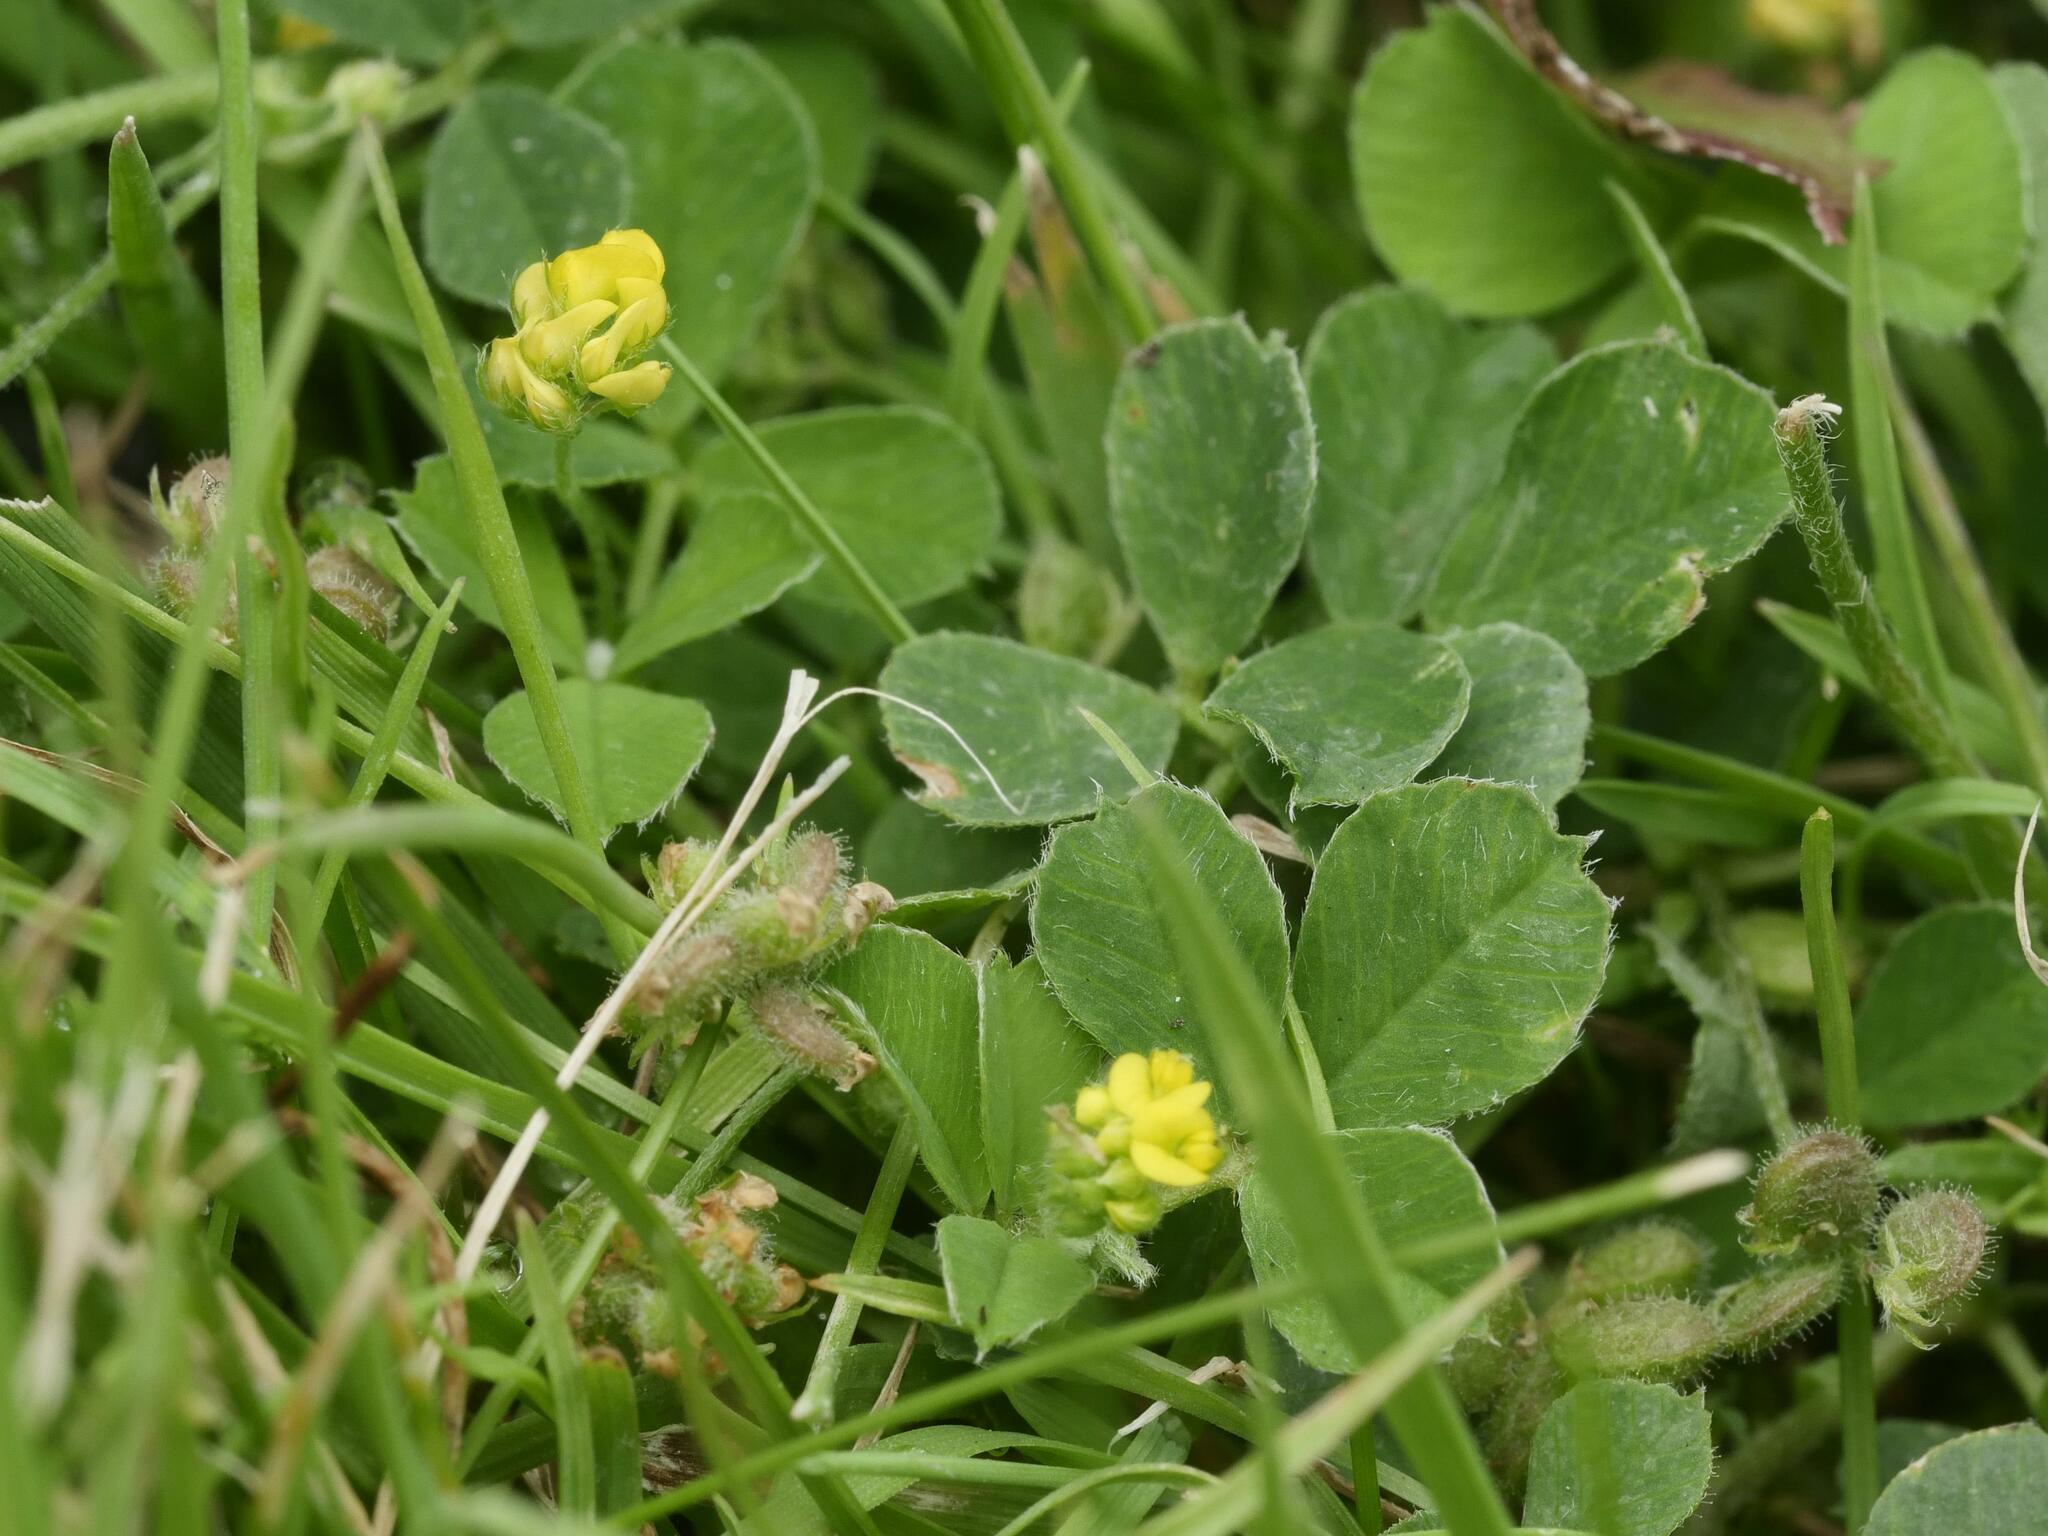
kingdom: Plantae
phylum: Tracheophyta
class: Magnoliopsida
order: Fabales
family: Fabaceae
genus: Medicago
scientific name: Medicago lupulina
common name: Black medick
